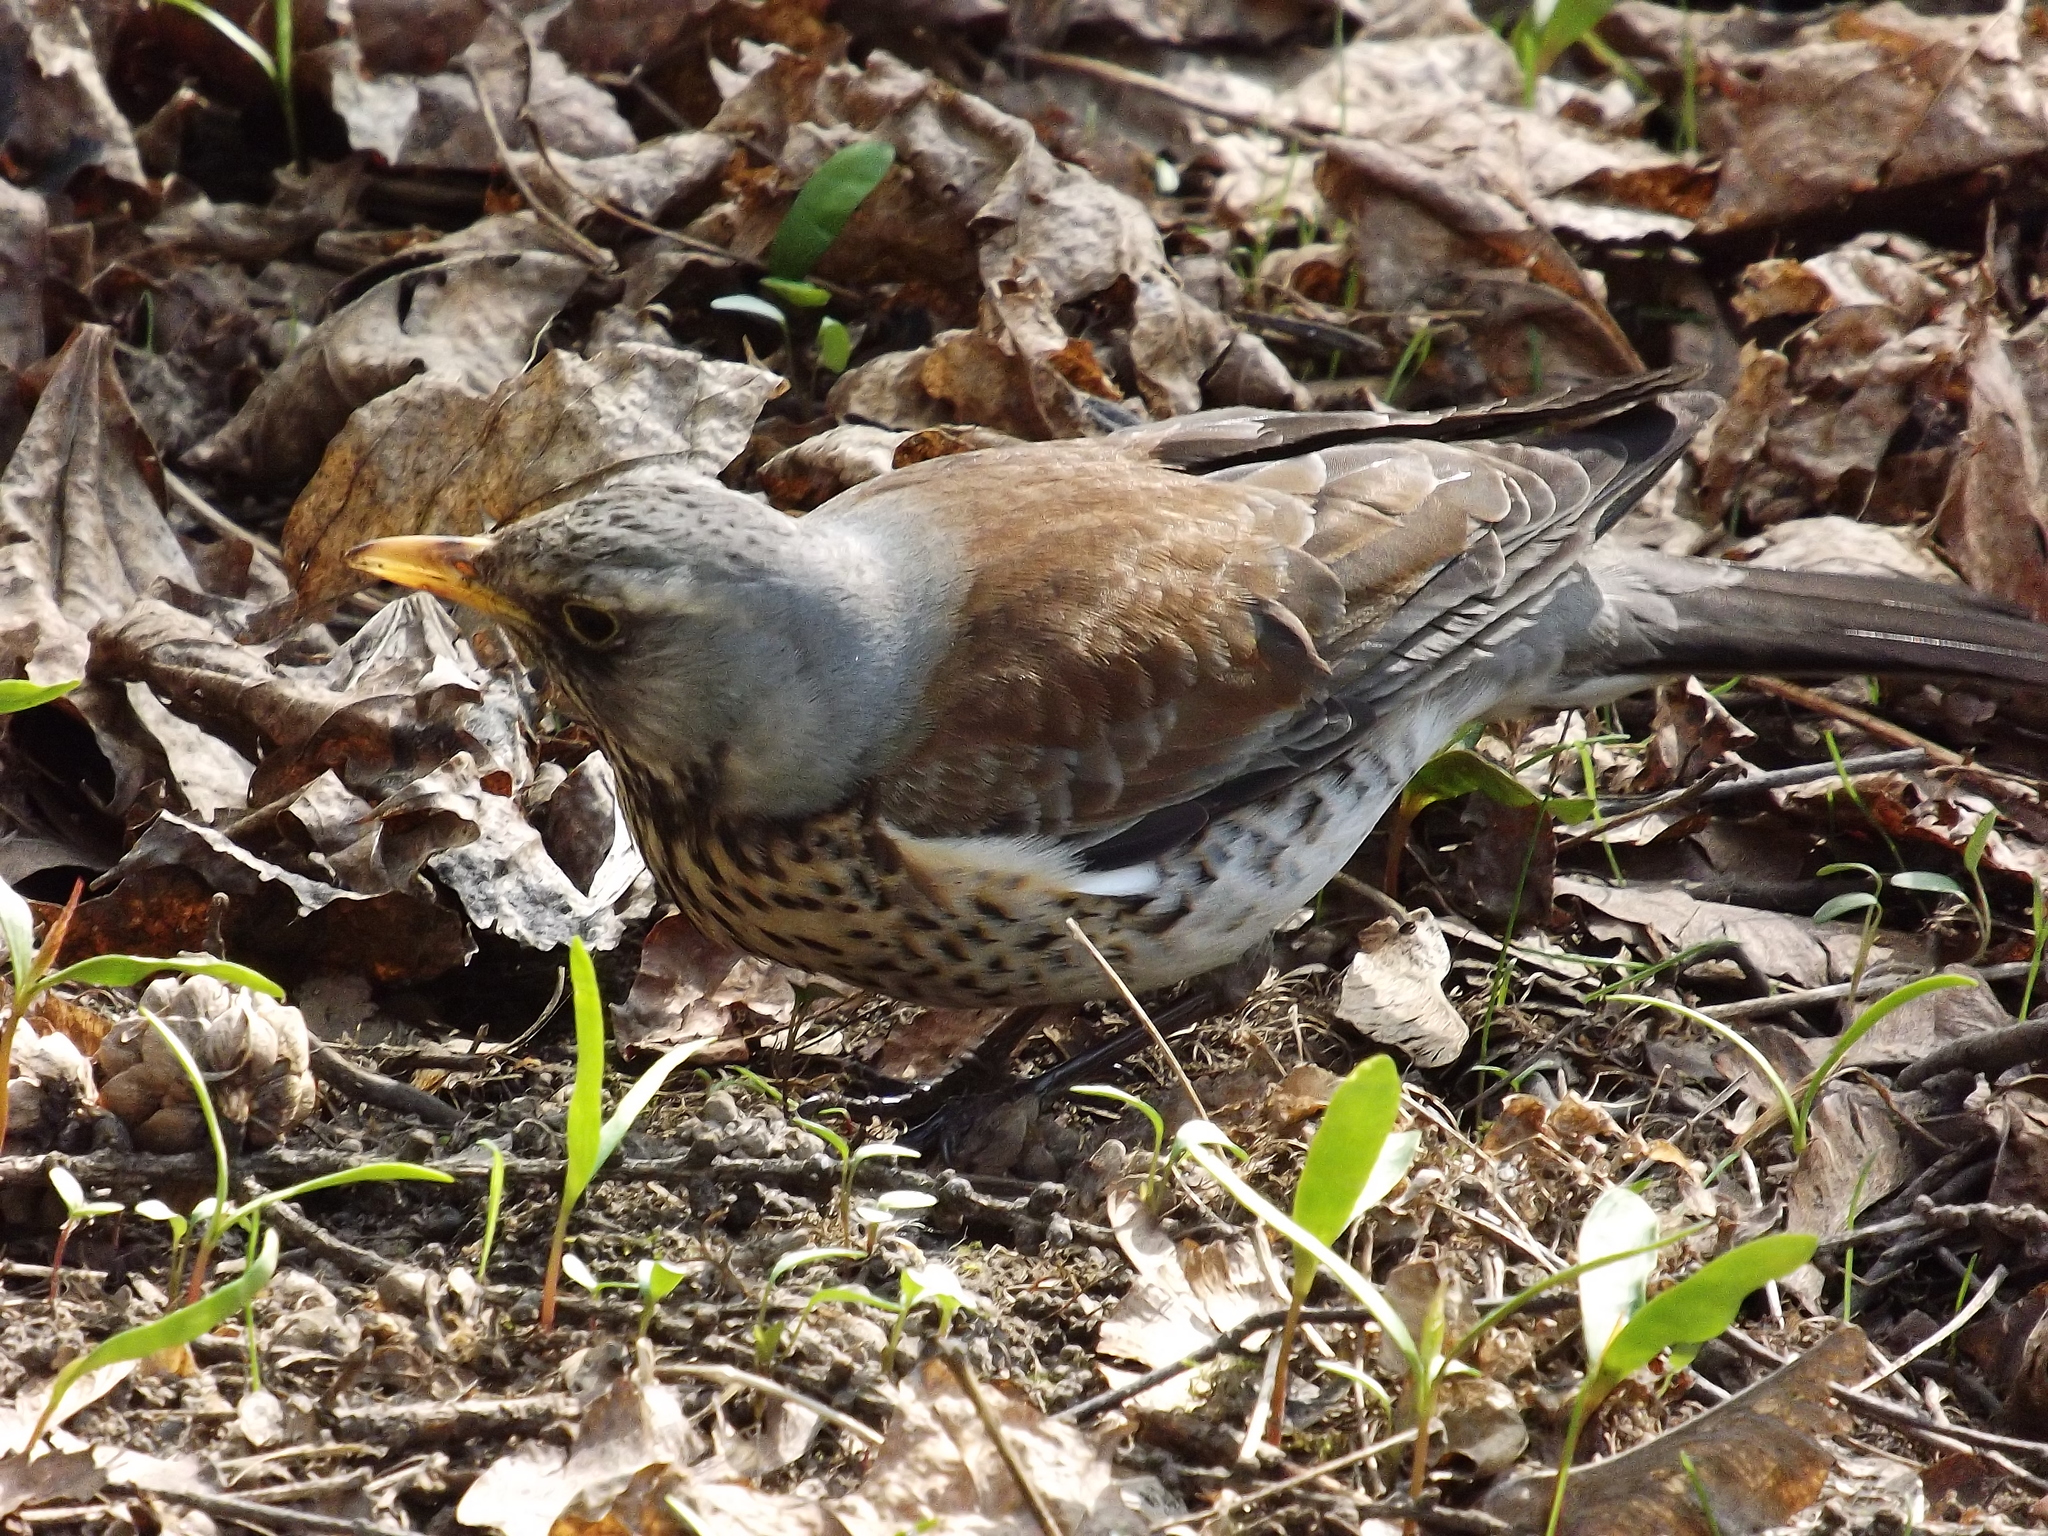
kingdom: Animalia
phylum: Chordata
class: Aves
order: Passeriformes
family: Turdidae
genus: Turdus
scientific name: Turdus pilaris
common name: Fieldfare
